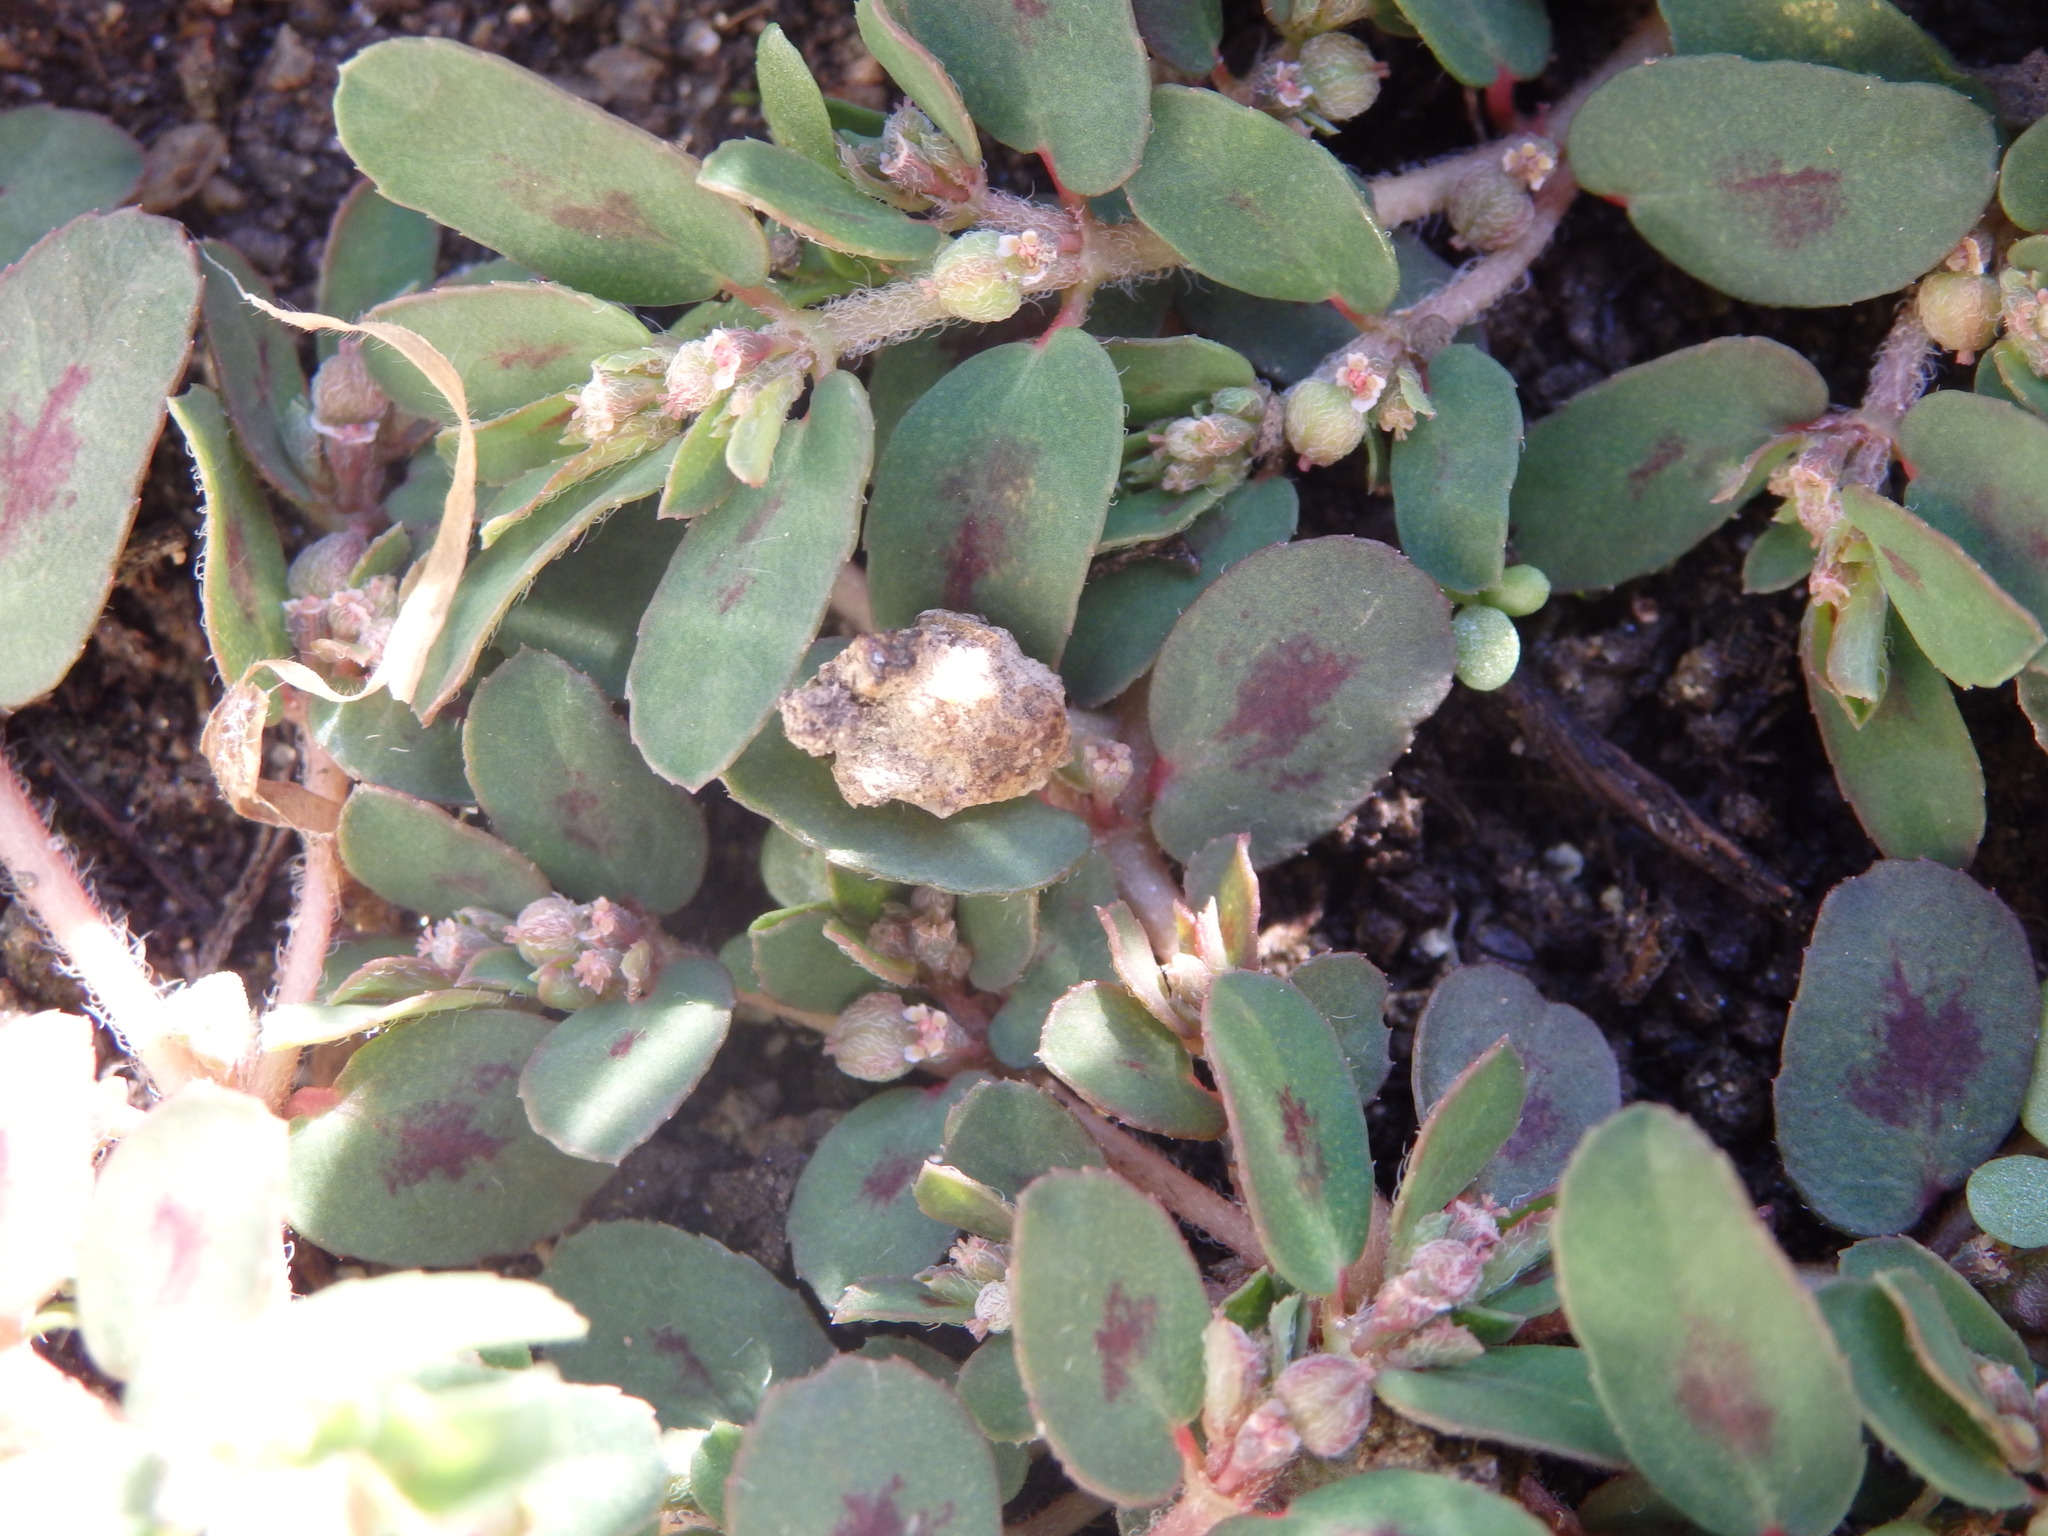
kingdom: Plantae
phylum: Tracheophyta
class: Magnoliopsida
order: Malpighiales
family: Euphorbiaceae
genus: Euphorbia
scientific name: Euphorbia maculata
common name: Spotted spurge
